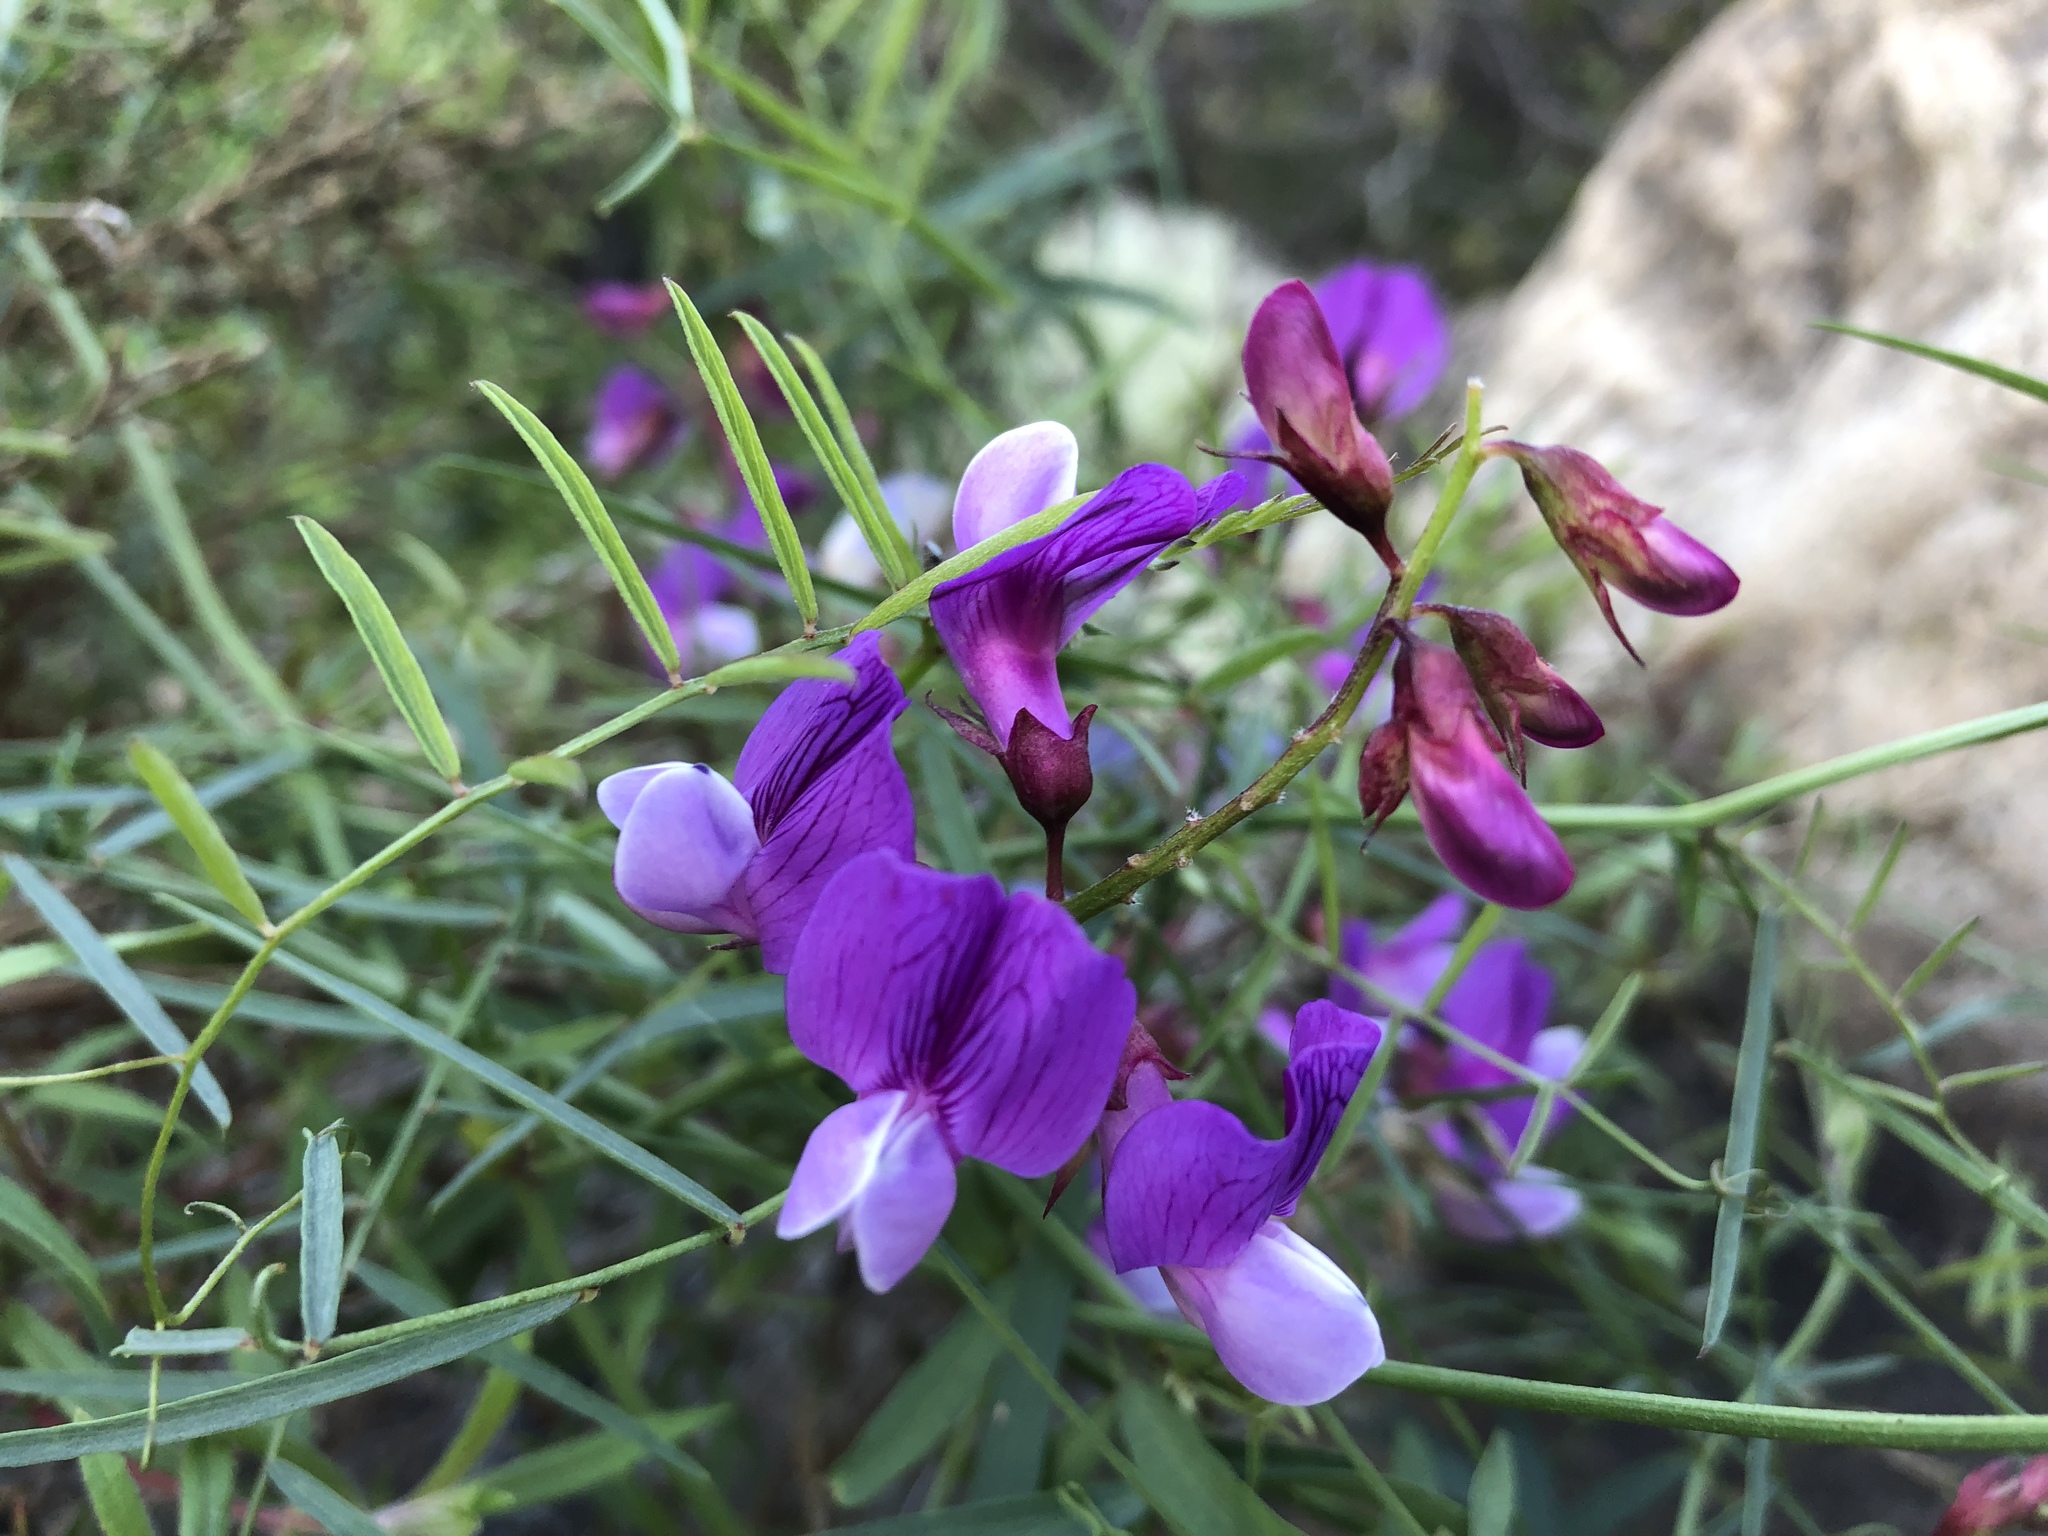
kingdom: Plantae
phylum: Tracheophyta
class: Magnoliopsida
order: Fabales
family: Fabaceae
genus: Lathyrus
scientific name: Lathyrus vestitus
